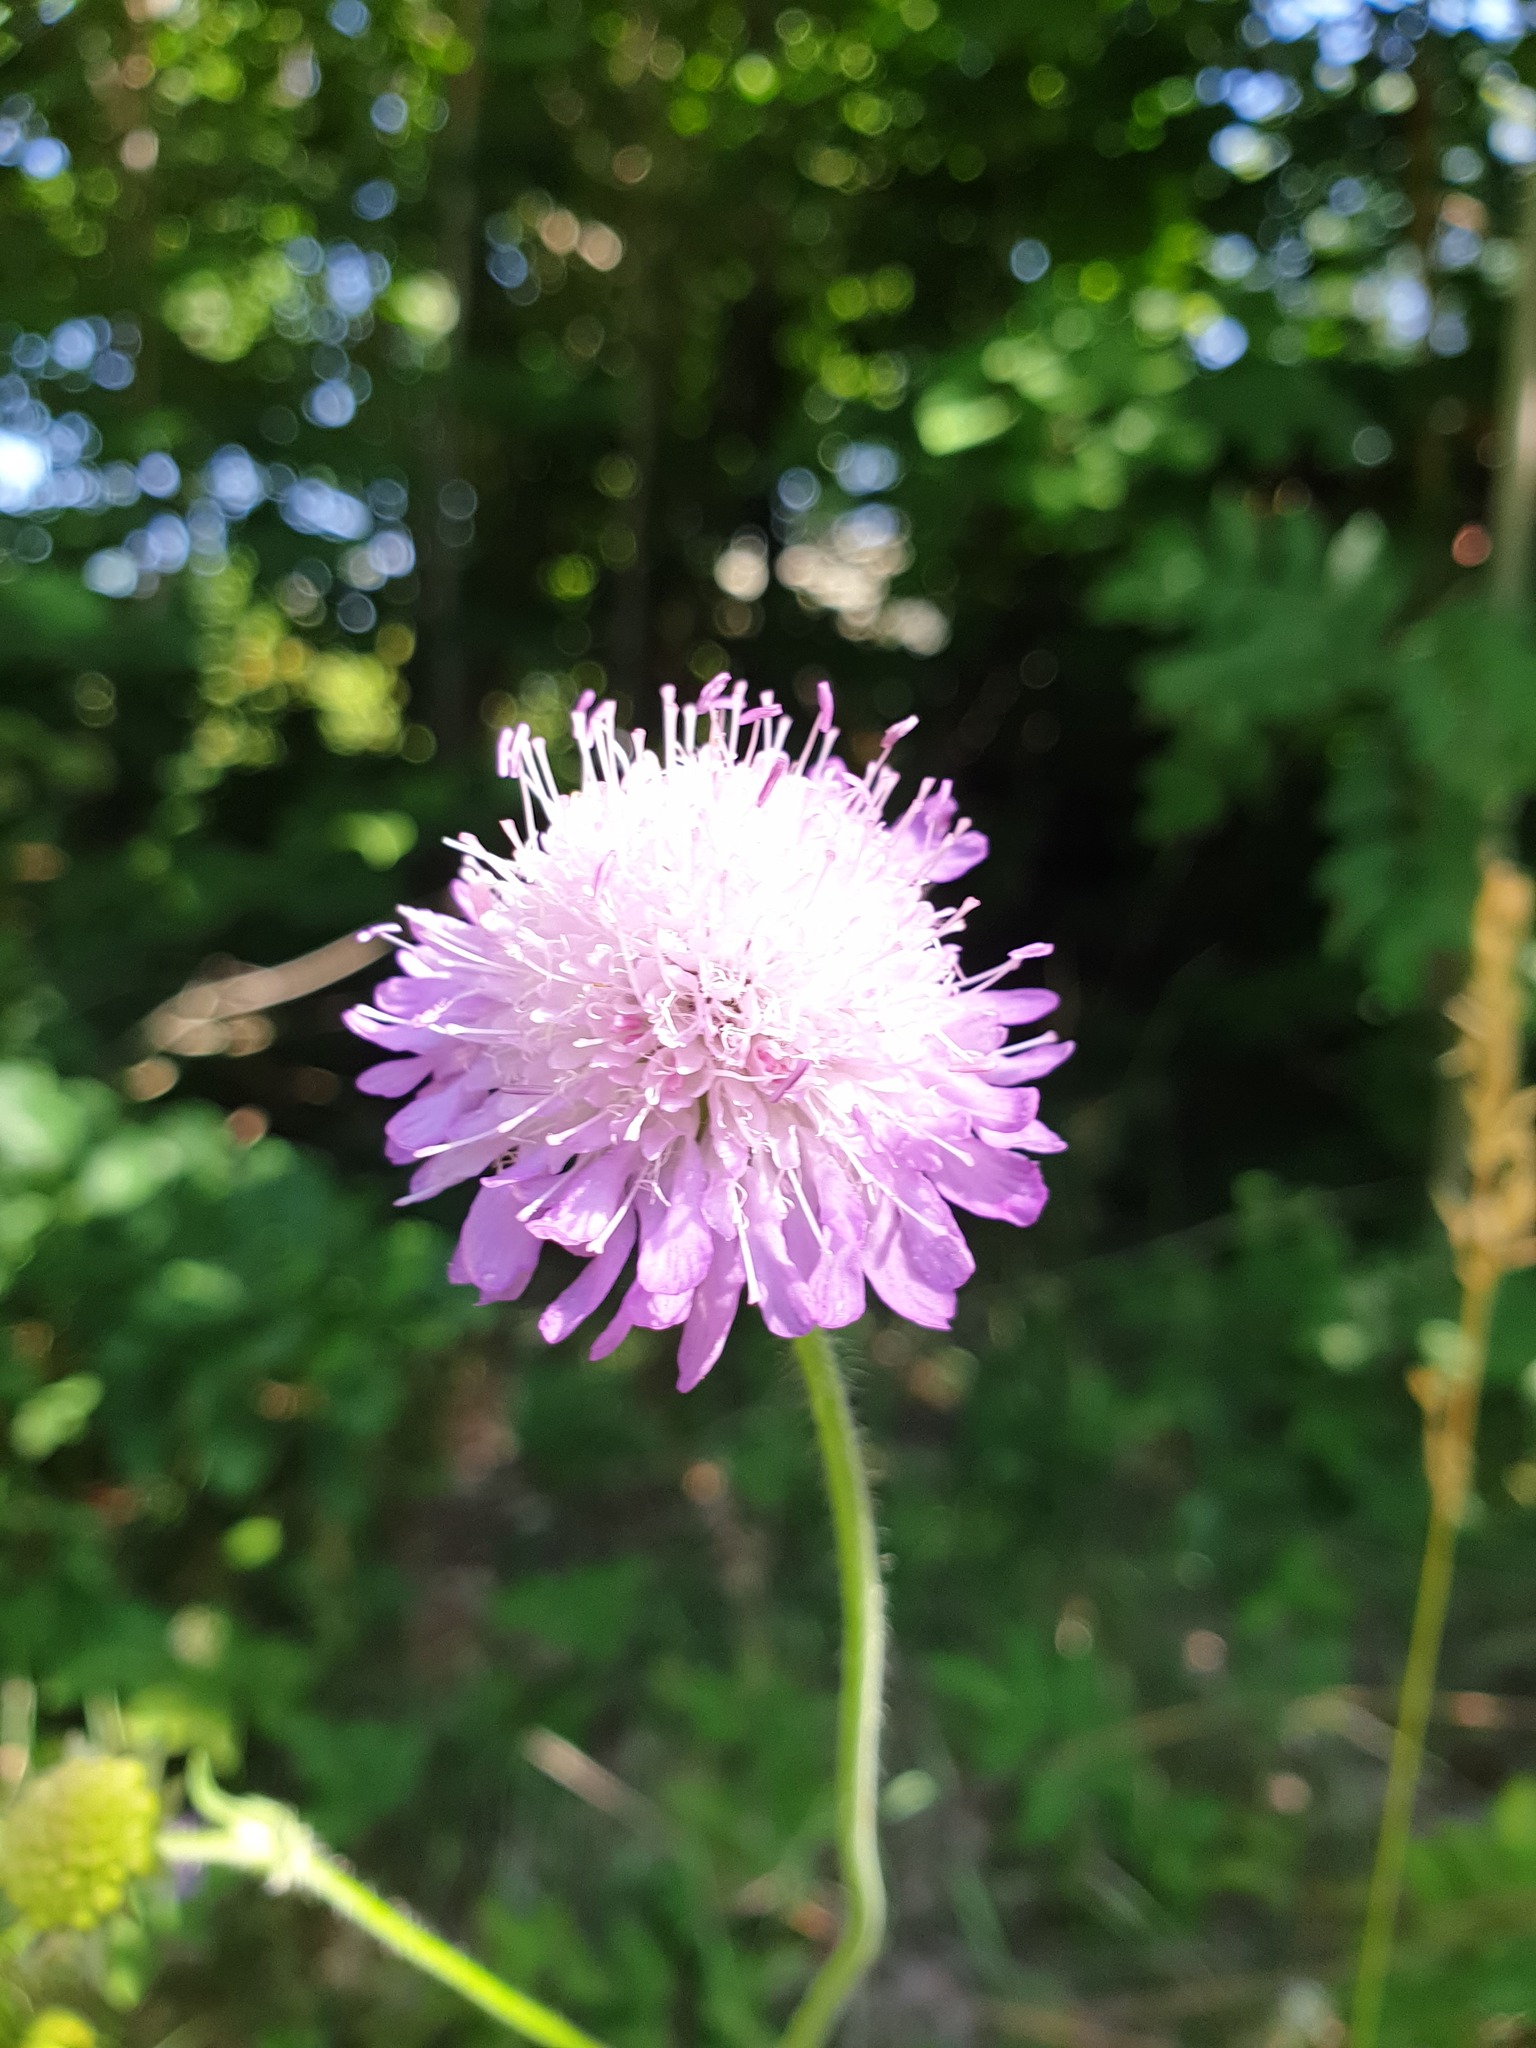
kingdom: Plantae
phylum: Tracheophyta
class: Magnoliopsida
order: Dipsacales
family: Caprifoliaceae
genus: Knautia
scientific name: Knautia arvensis
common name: Field scabiosa
